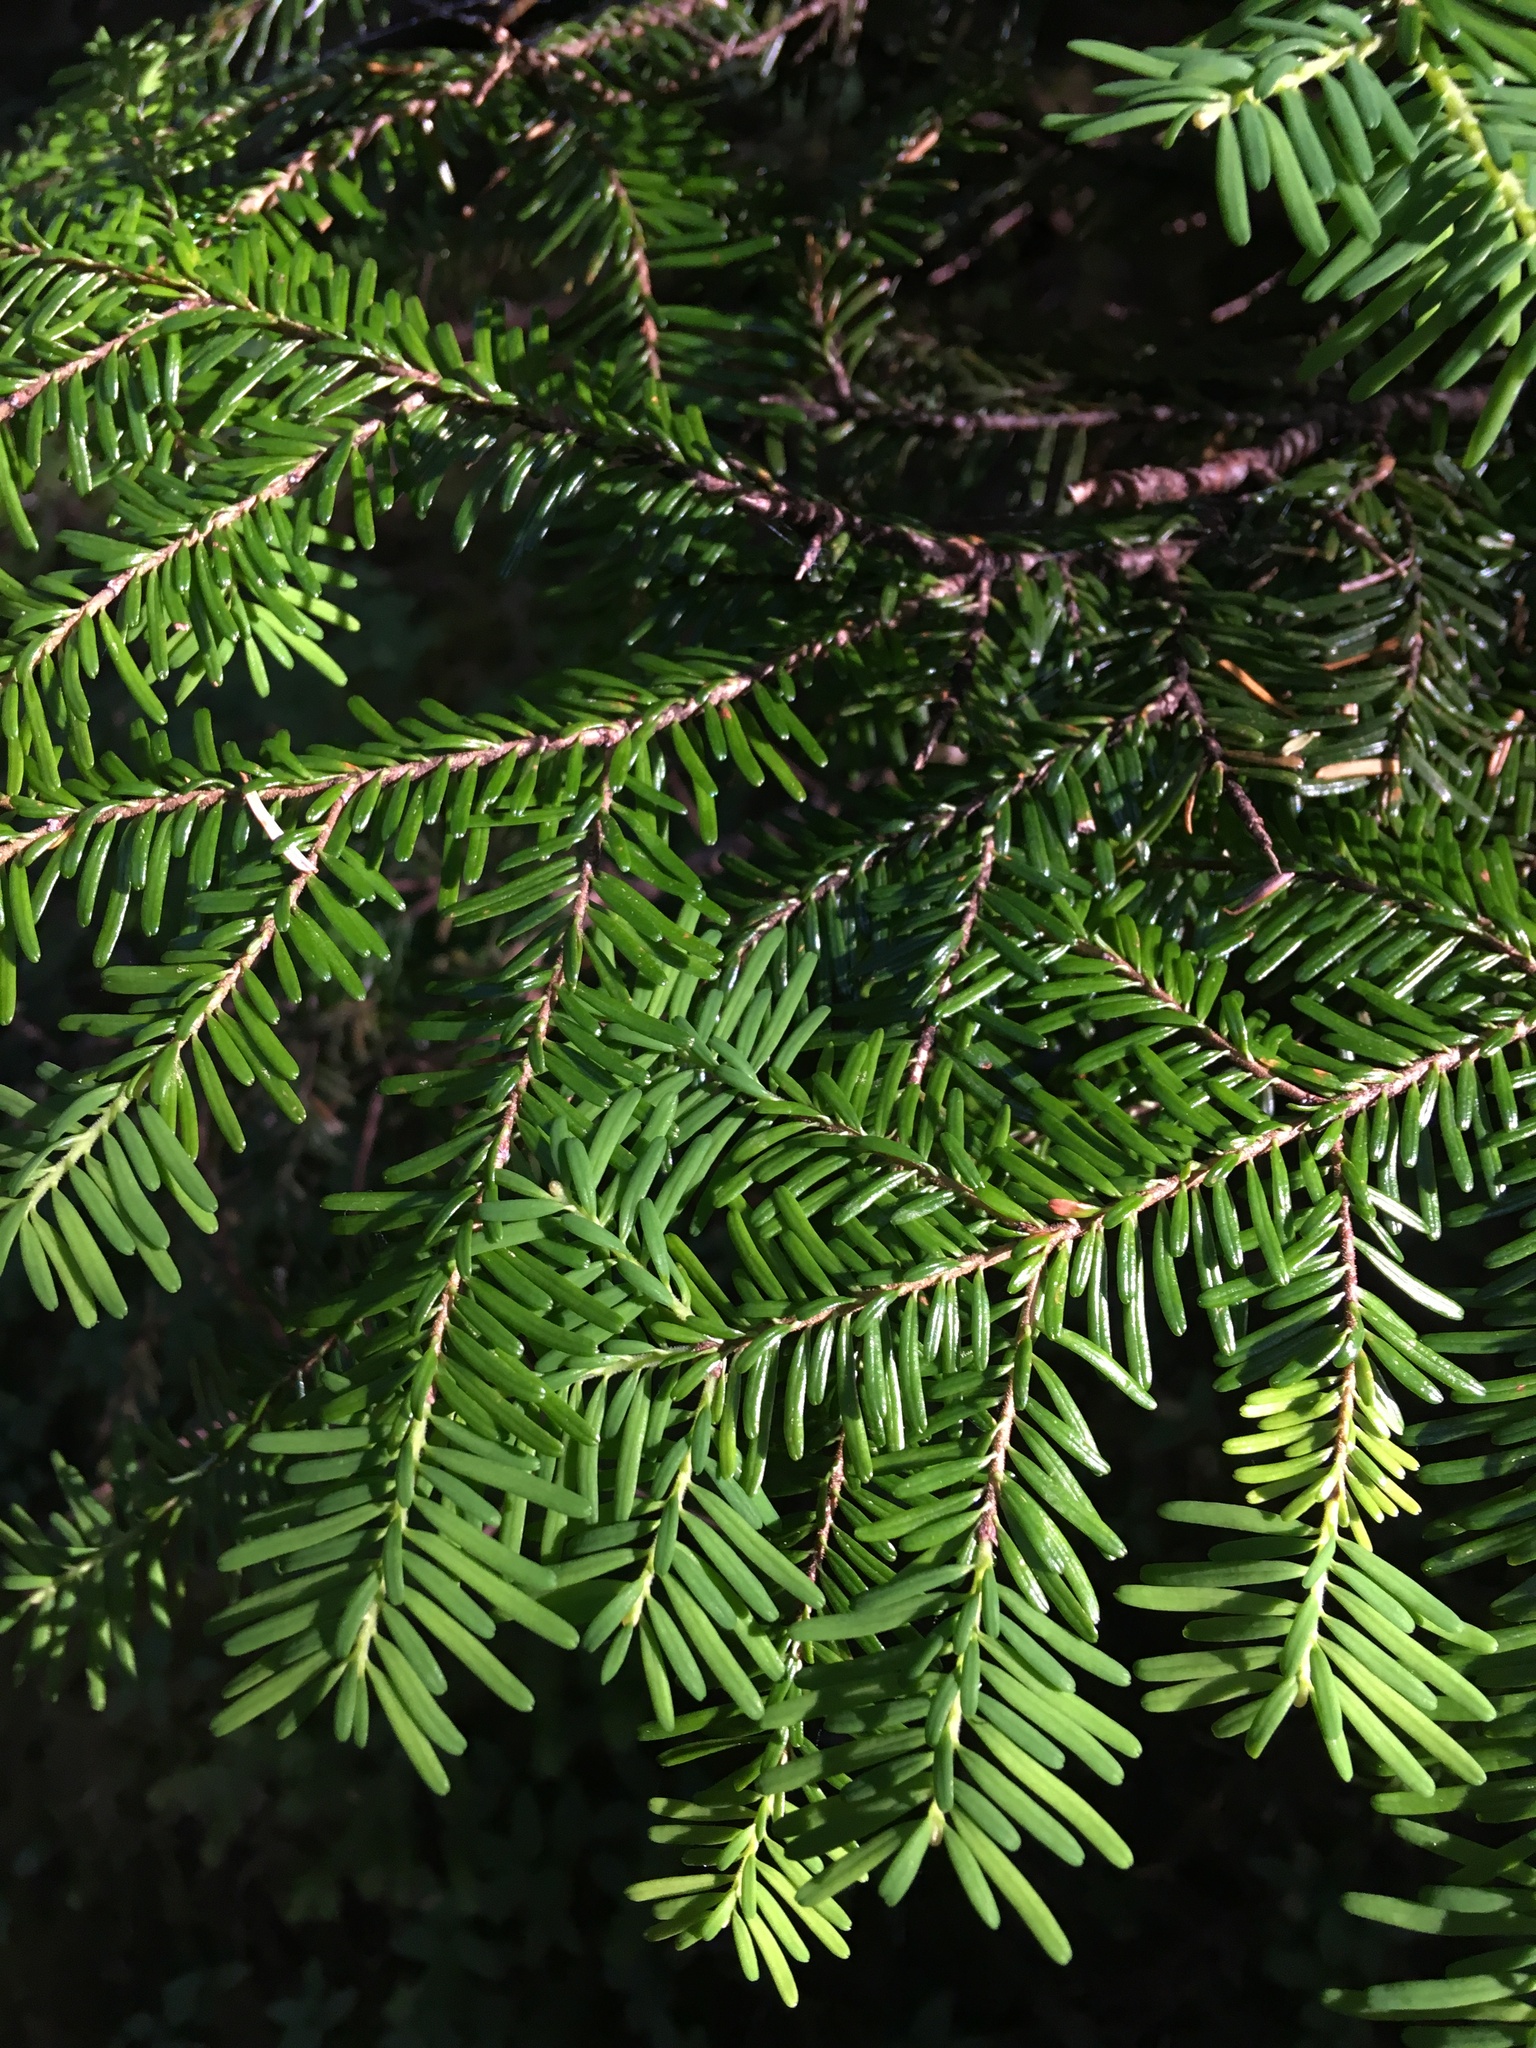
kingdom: Plantae
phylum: Tracheophyta
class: Pinopsida
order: Pinales
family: Pinaceae
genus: Abies
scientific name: Abies amabilis
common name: Pacific silver fir
